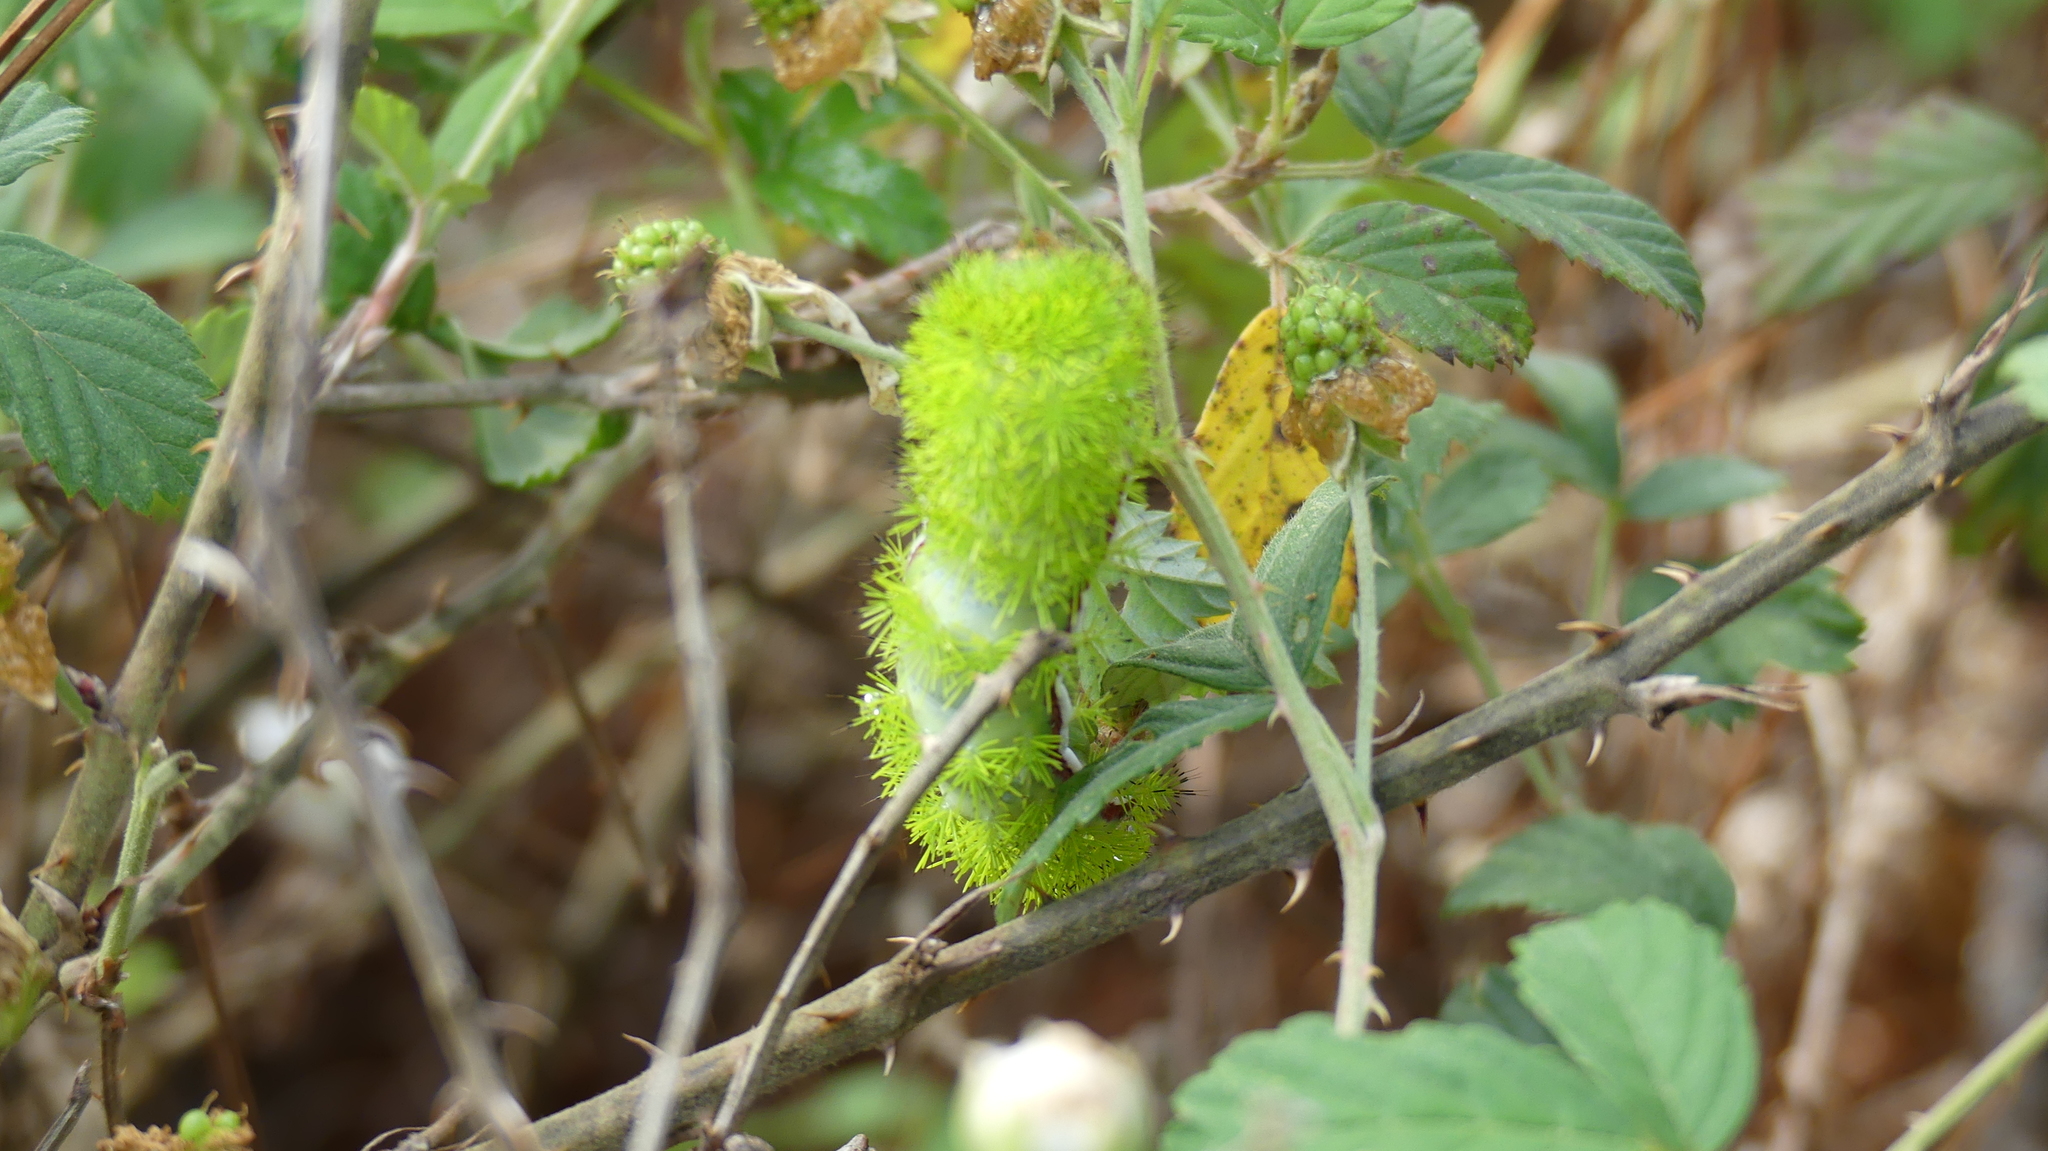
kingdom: Animalia
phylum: Arthropoda
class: Insecta
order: Lepidoptera
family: Saturniidae
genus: Automeris
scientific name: Automeris io
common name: Io moth
